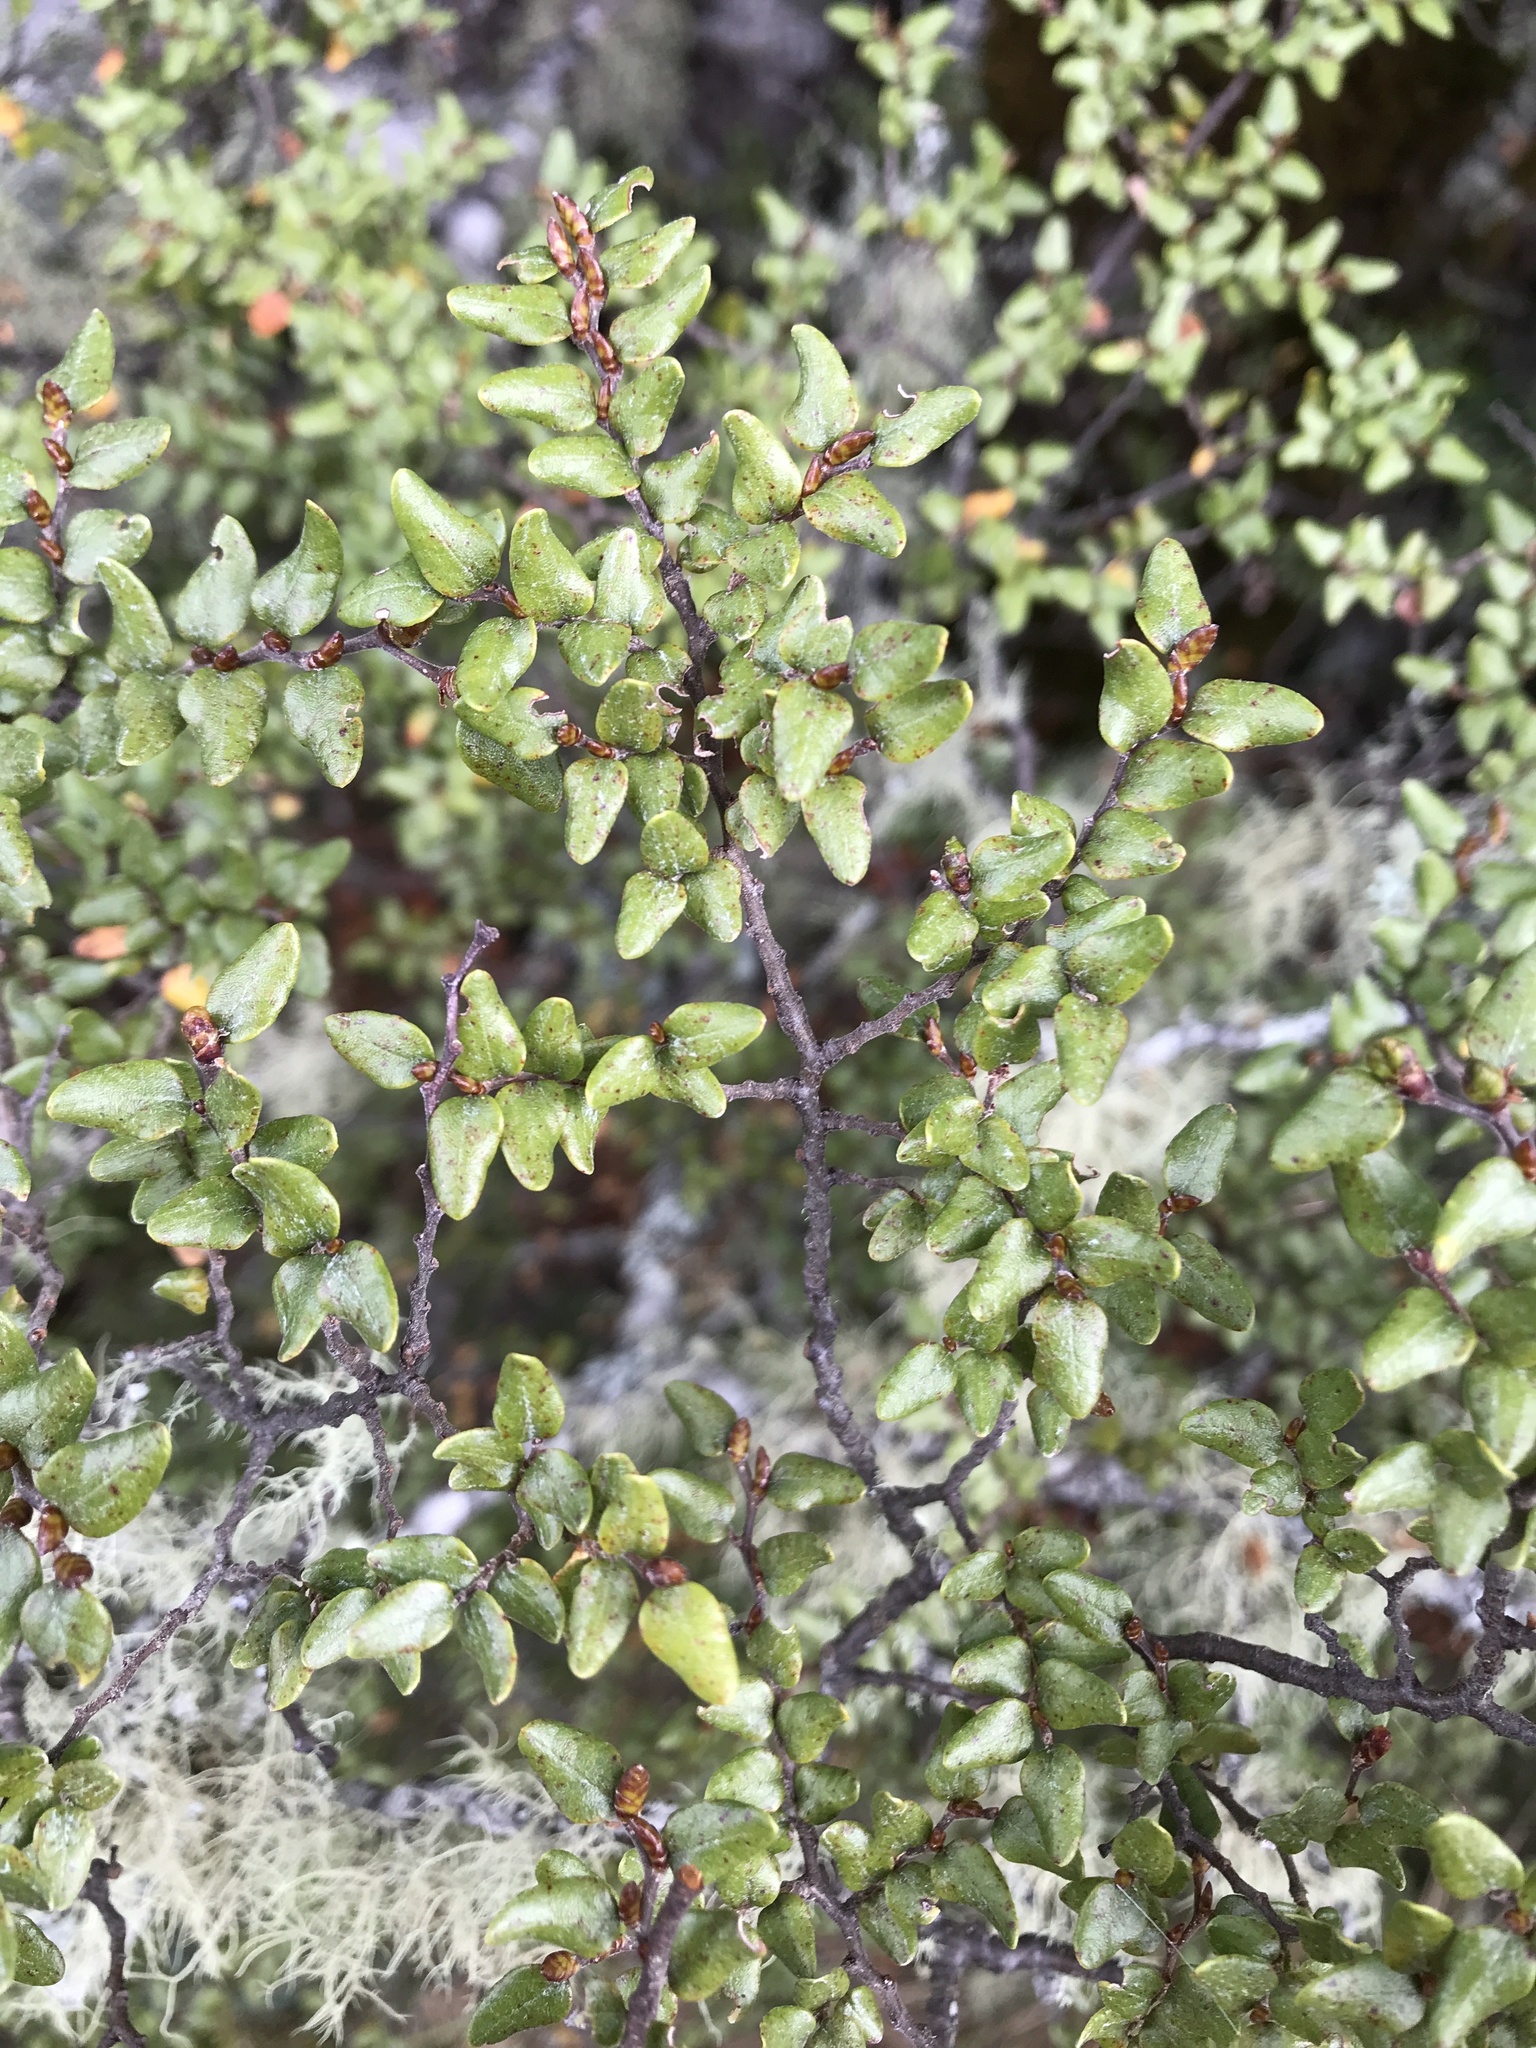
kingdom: Plantae
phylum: Tracheophyta
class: Magnoliopsida
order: Fagales
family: Nothofagaceae
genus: Nothofagus
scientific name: Nothofagus cliffortioides
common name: Mountain beech
